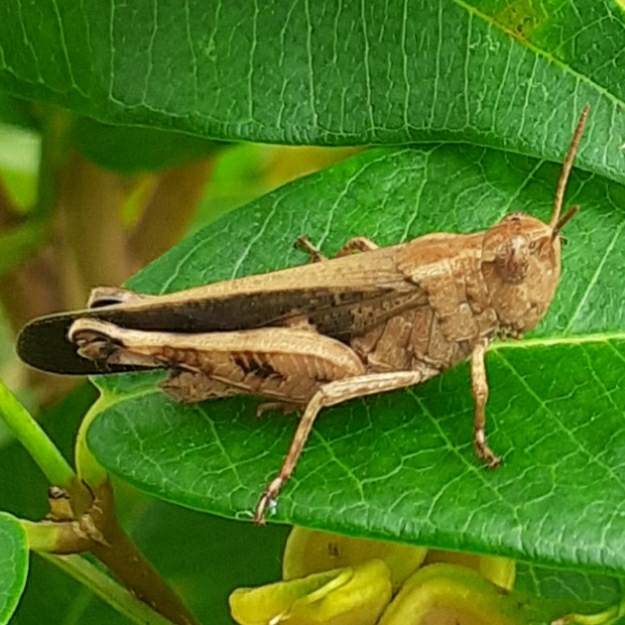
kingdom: Animalia
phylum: Arthropoda
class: Insecta
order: Orthoptera
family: Acrididae
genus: Aiolopus
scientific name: Aiolopus strepens
